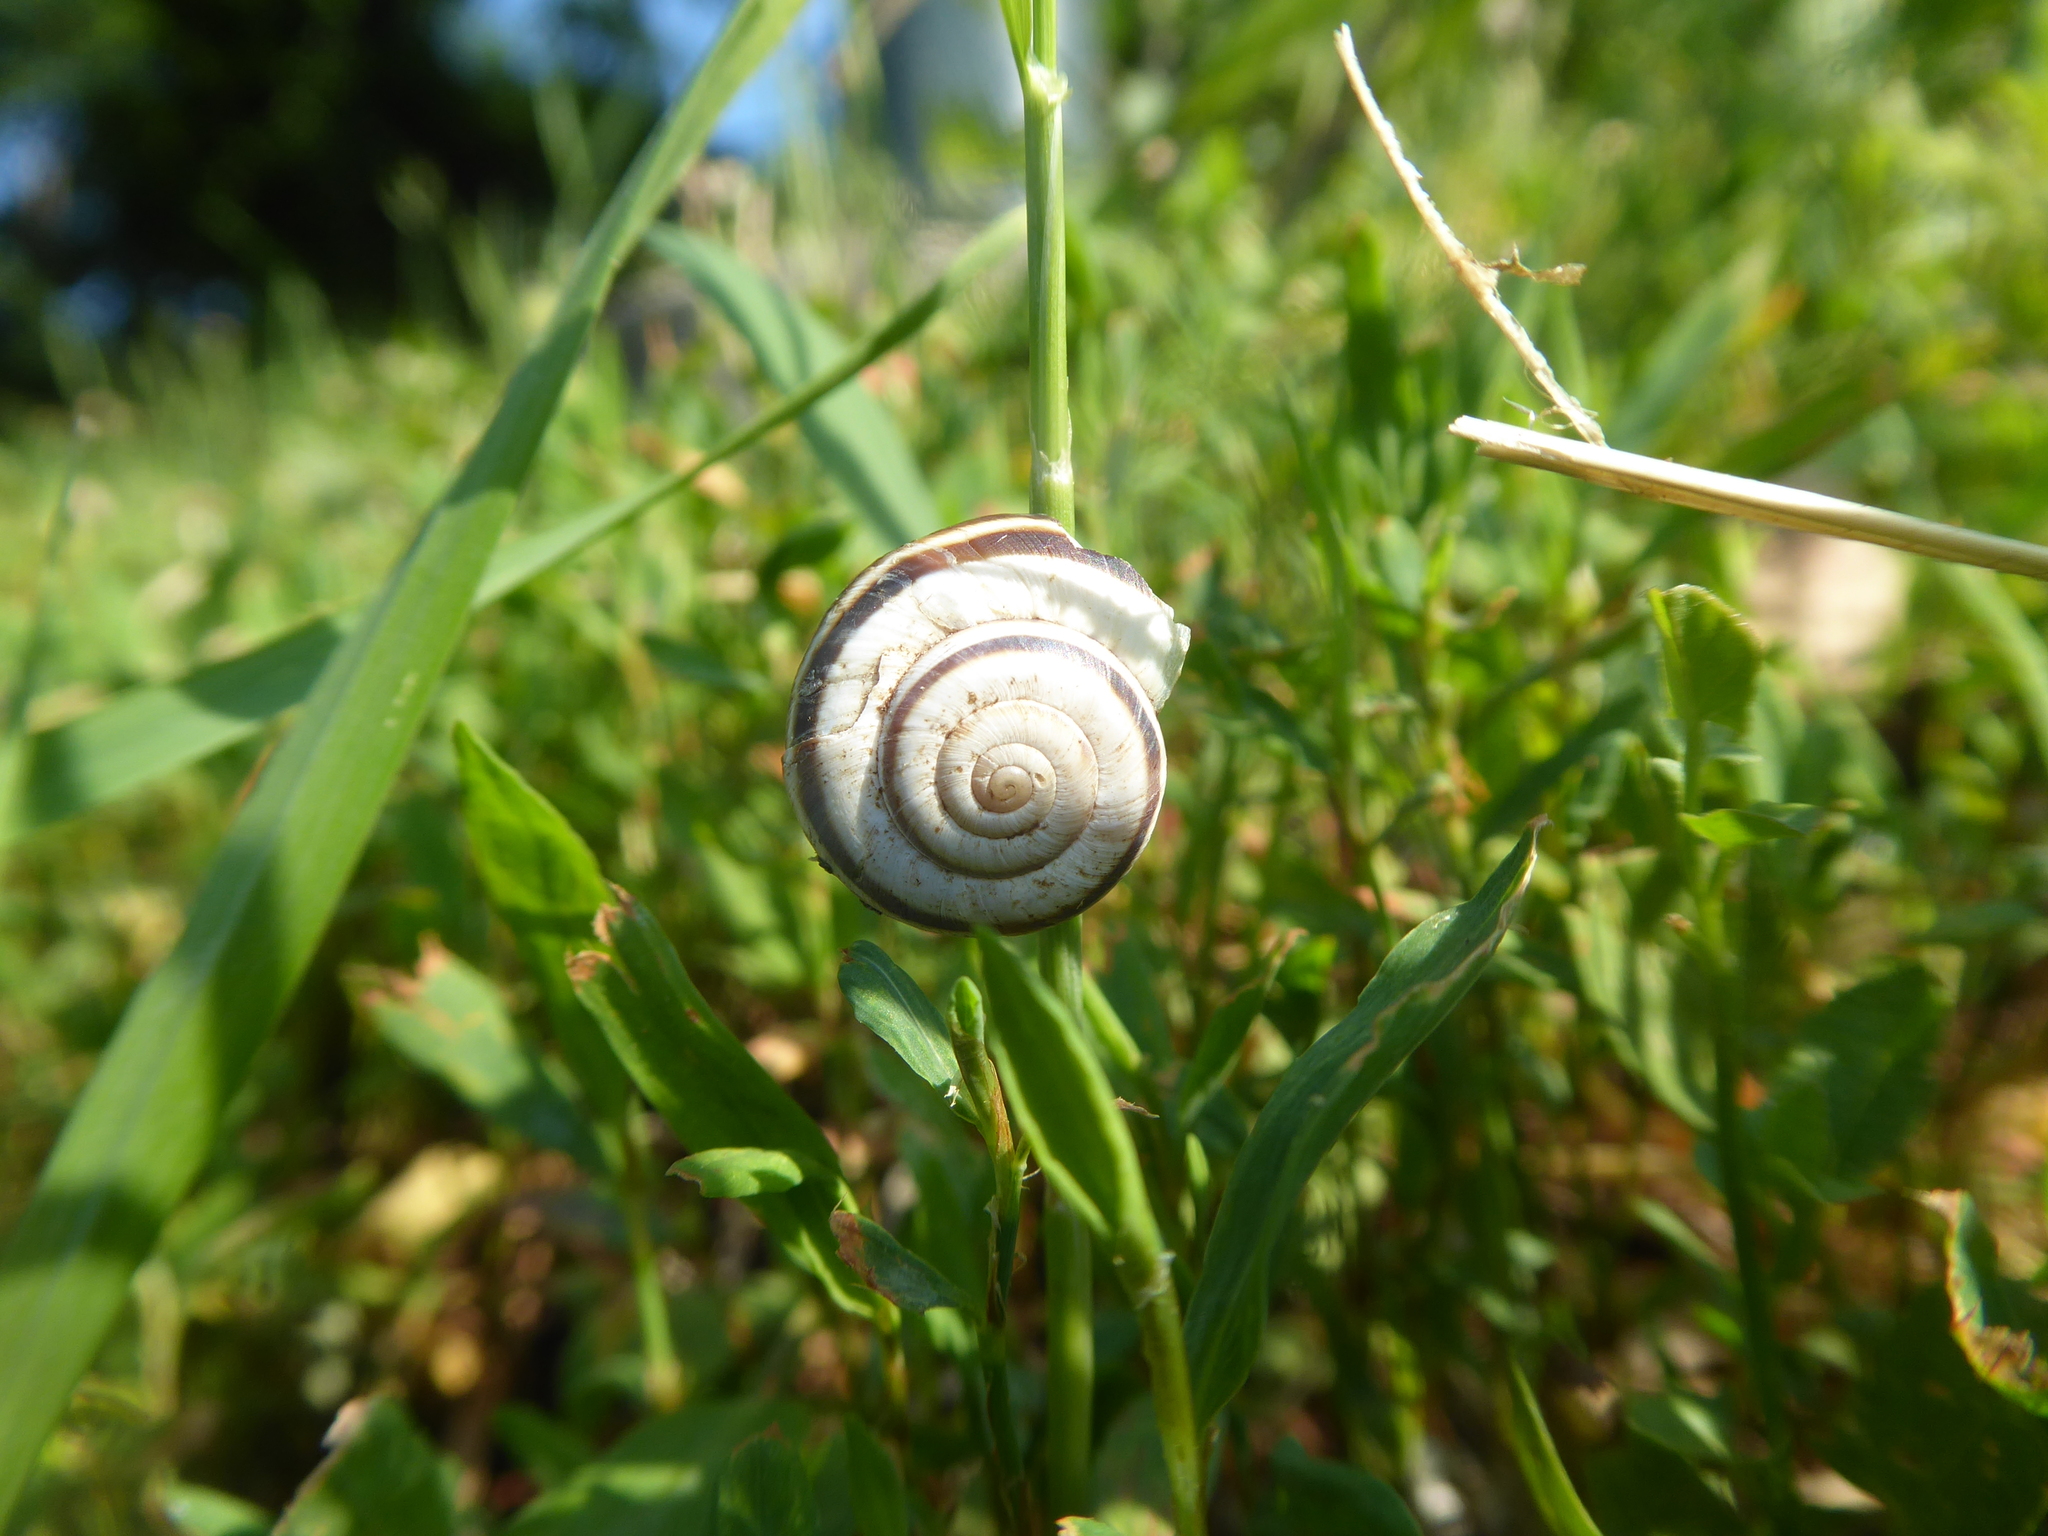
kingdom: Animalia
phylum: Mollusca
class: Gastropoda
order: Stylommatophora
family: Geomitridae
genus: Xerolenta
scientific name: Xerolenta obvia
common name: White heath snail
